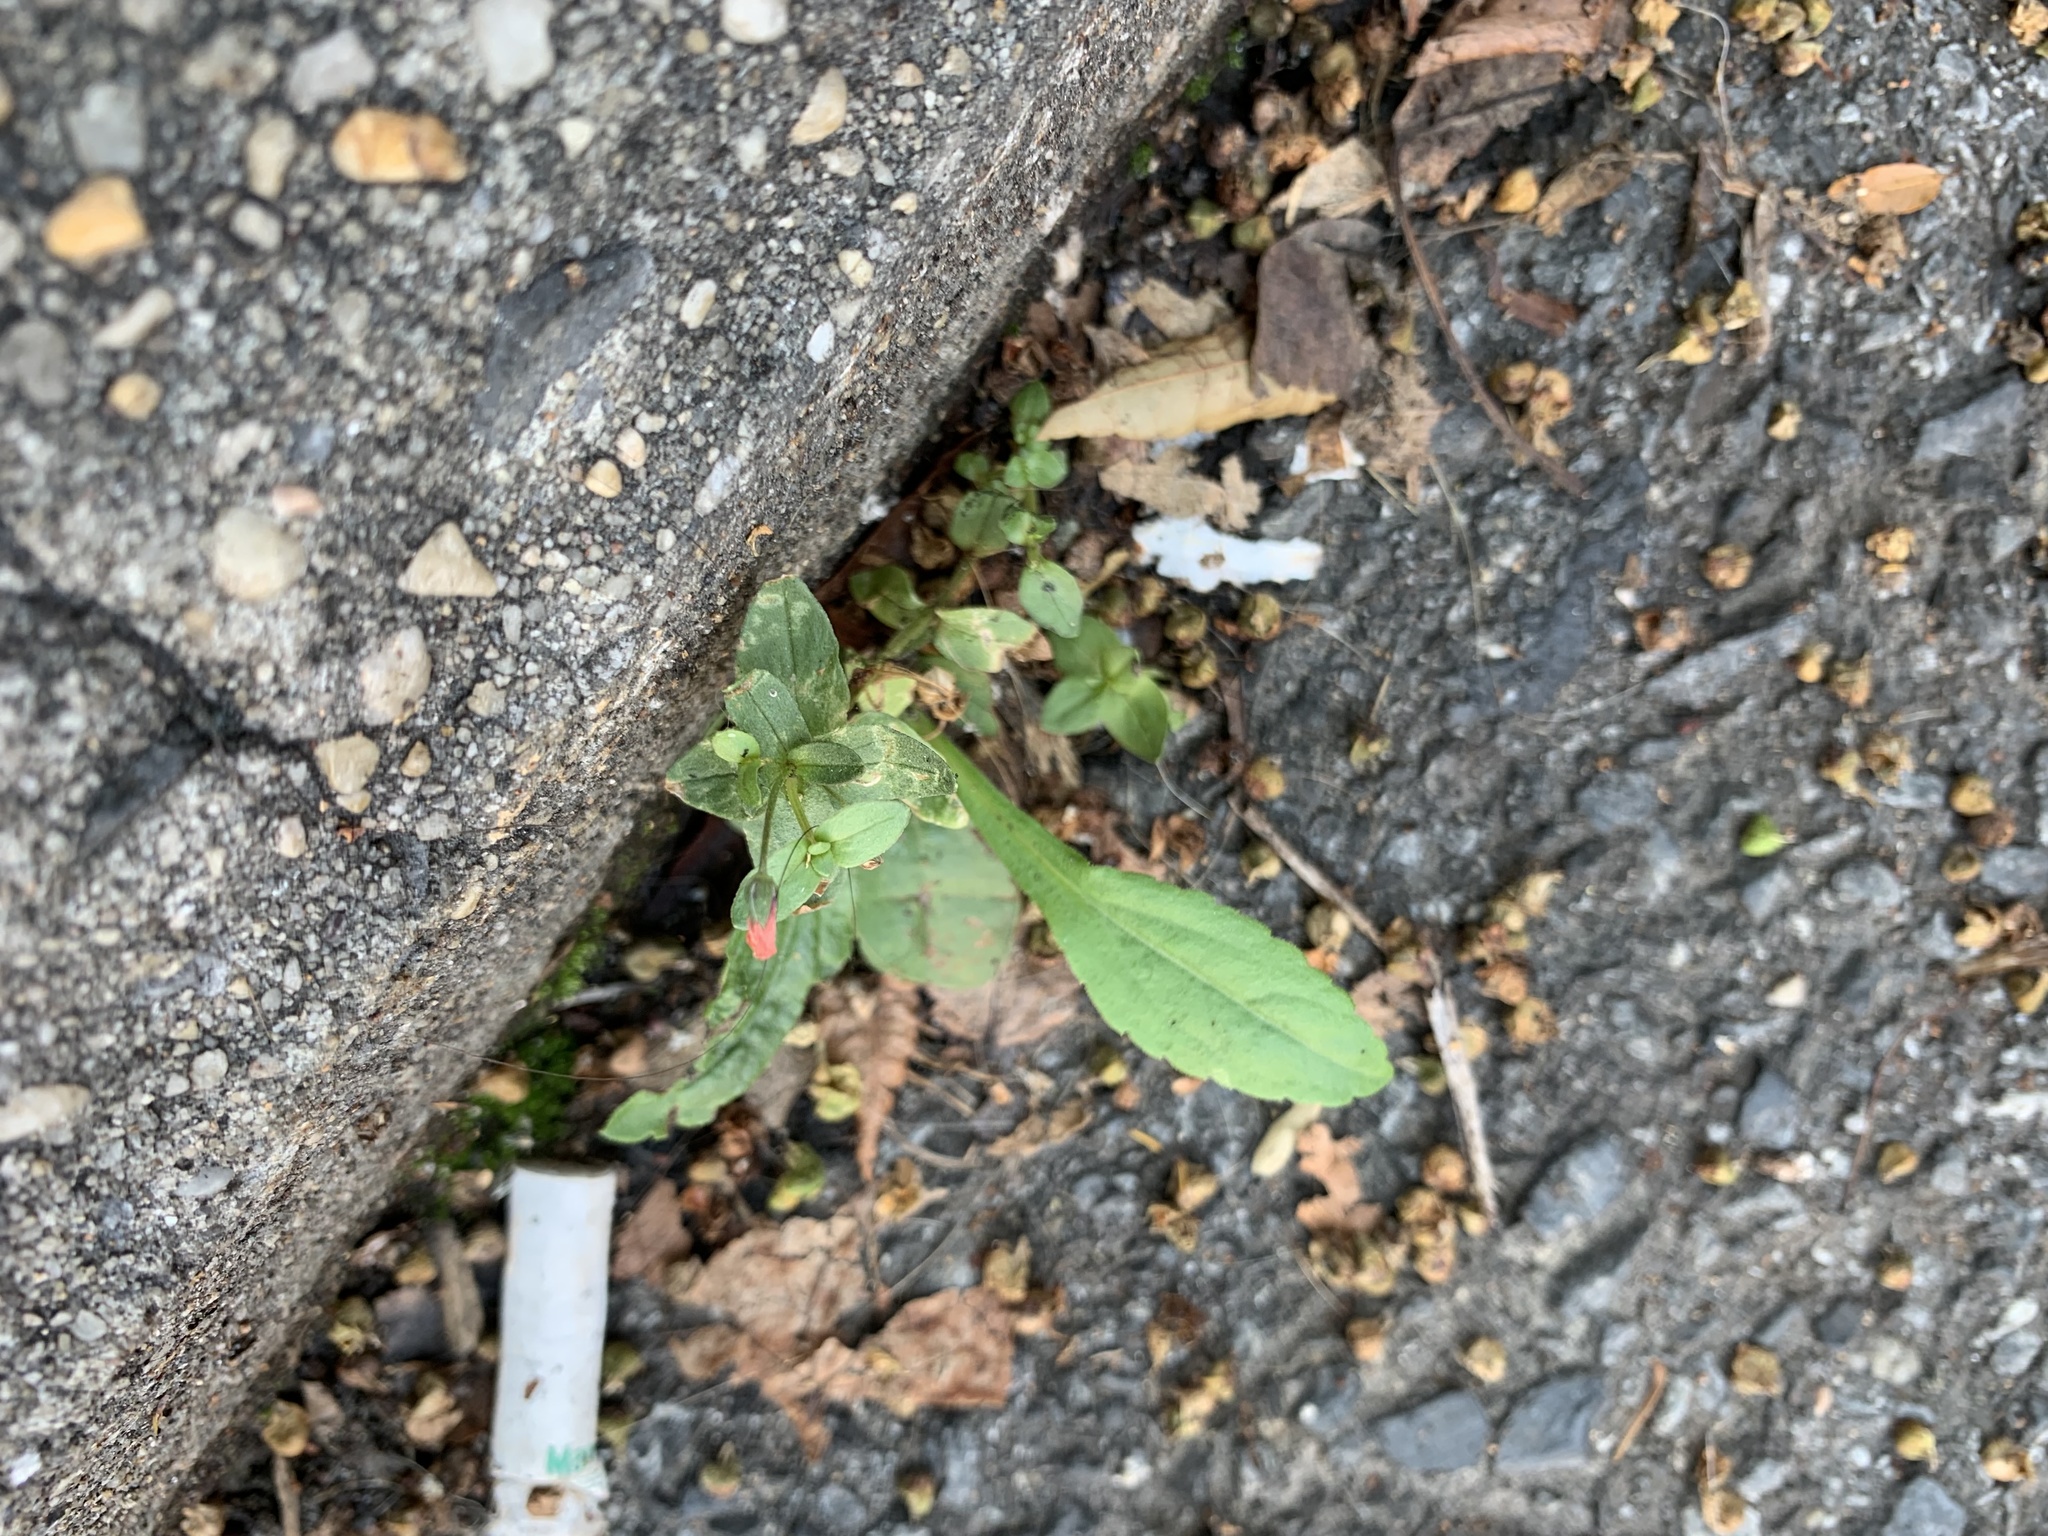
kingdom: Plantae
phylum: Tracheophyta
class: Magnoliopsida
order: Ericales
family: Primulaceae
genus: Lysimachia
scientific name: Lysimachia arvensis
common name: Scarlet pimpernel
